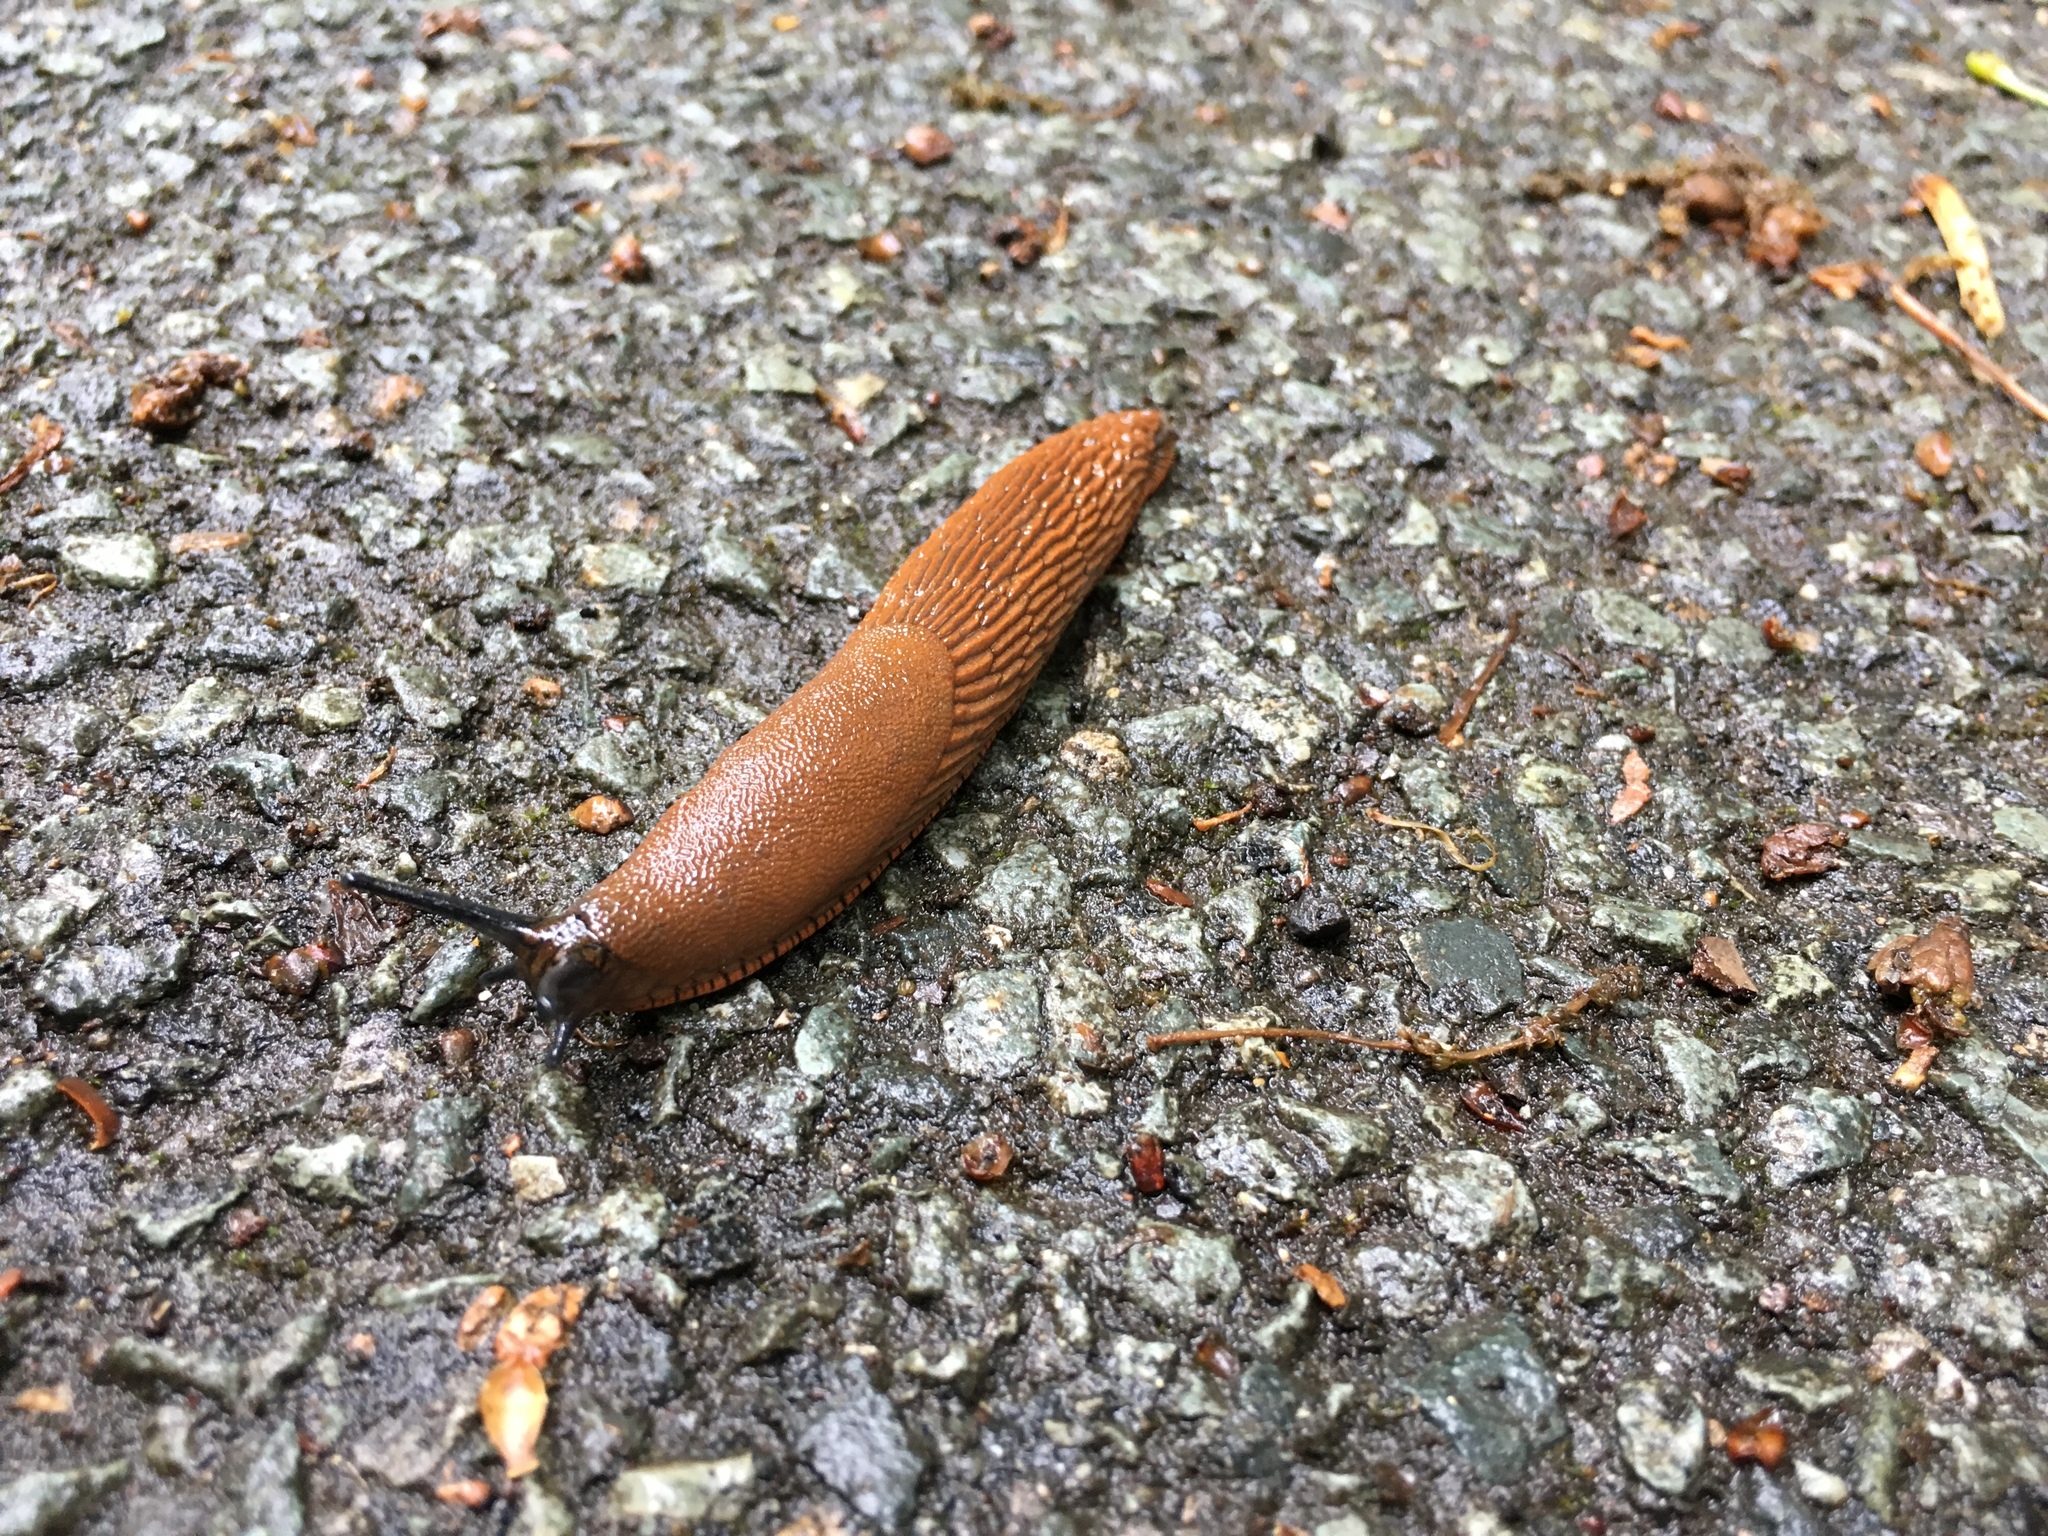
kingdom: Animalia
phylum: Mollusca
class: Gastropoda
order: Stylommatophora
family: Arionidae
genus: Arion
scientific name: Arion vulgaris
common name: Lusitanian slug
